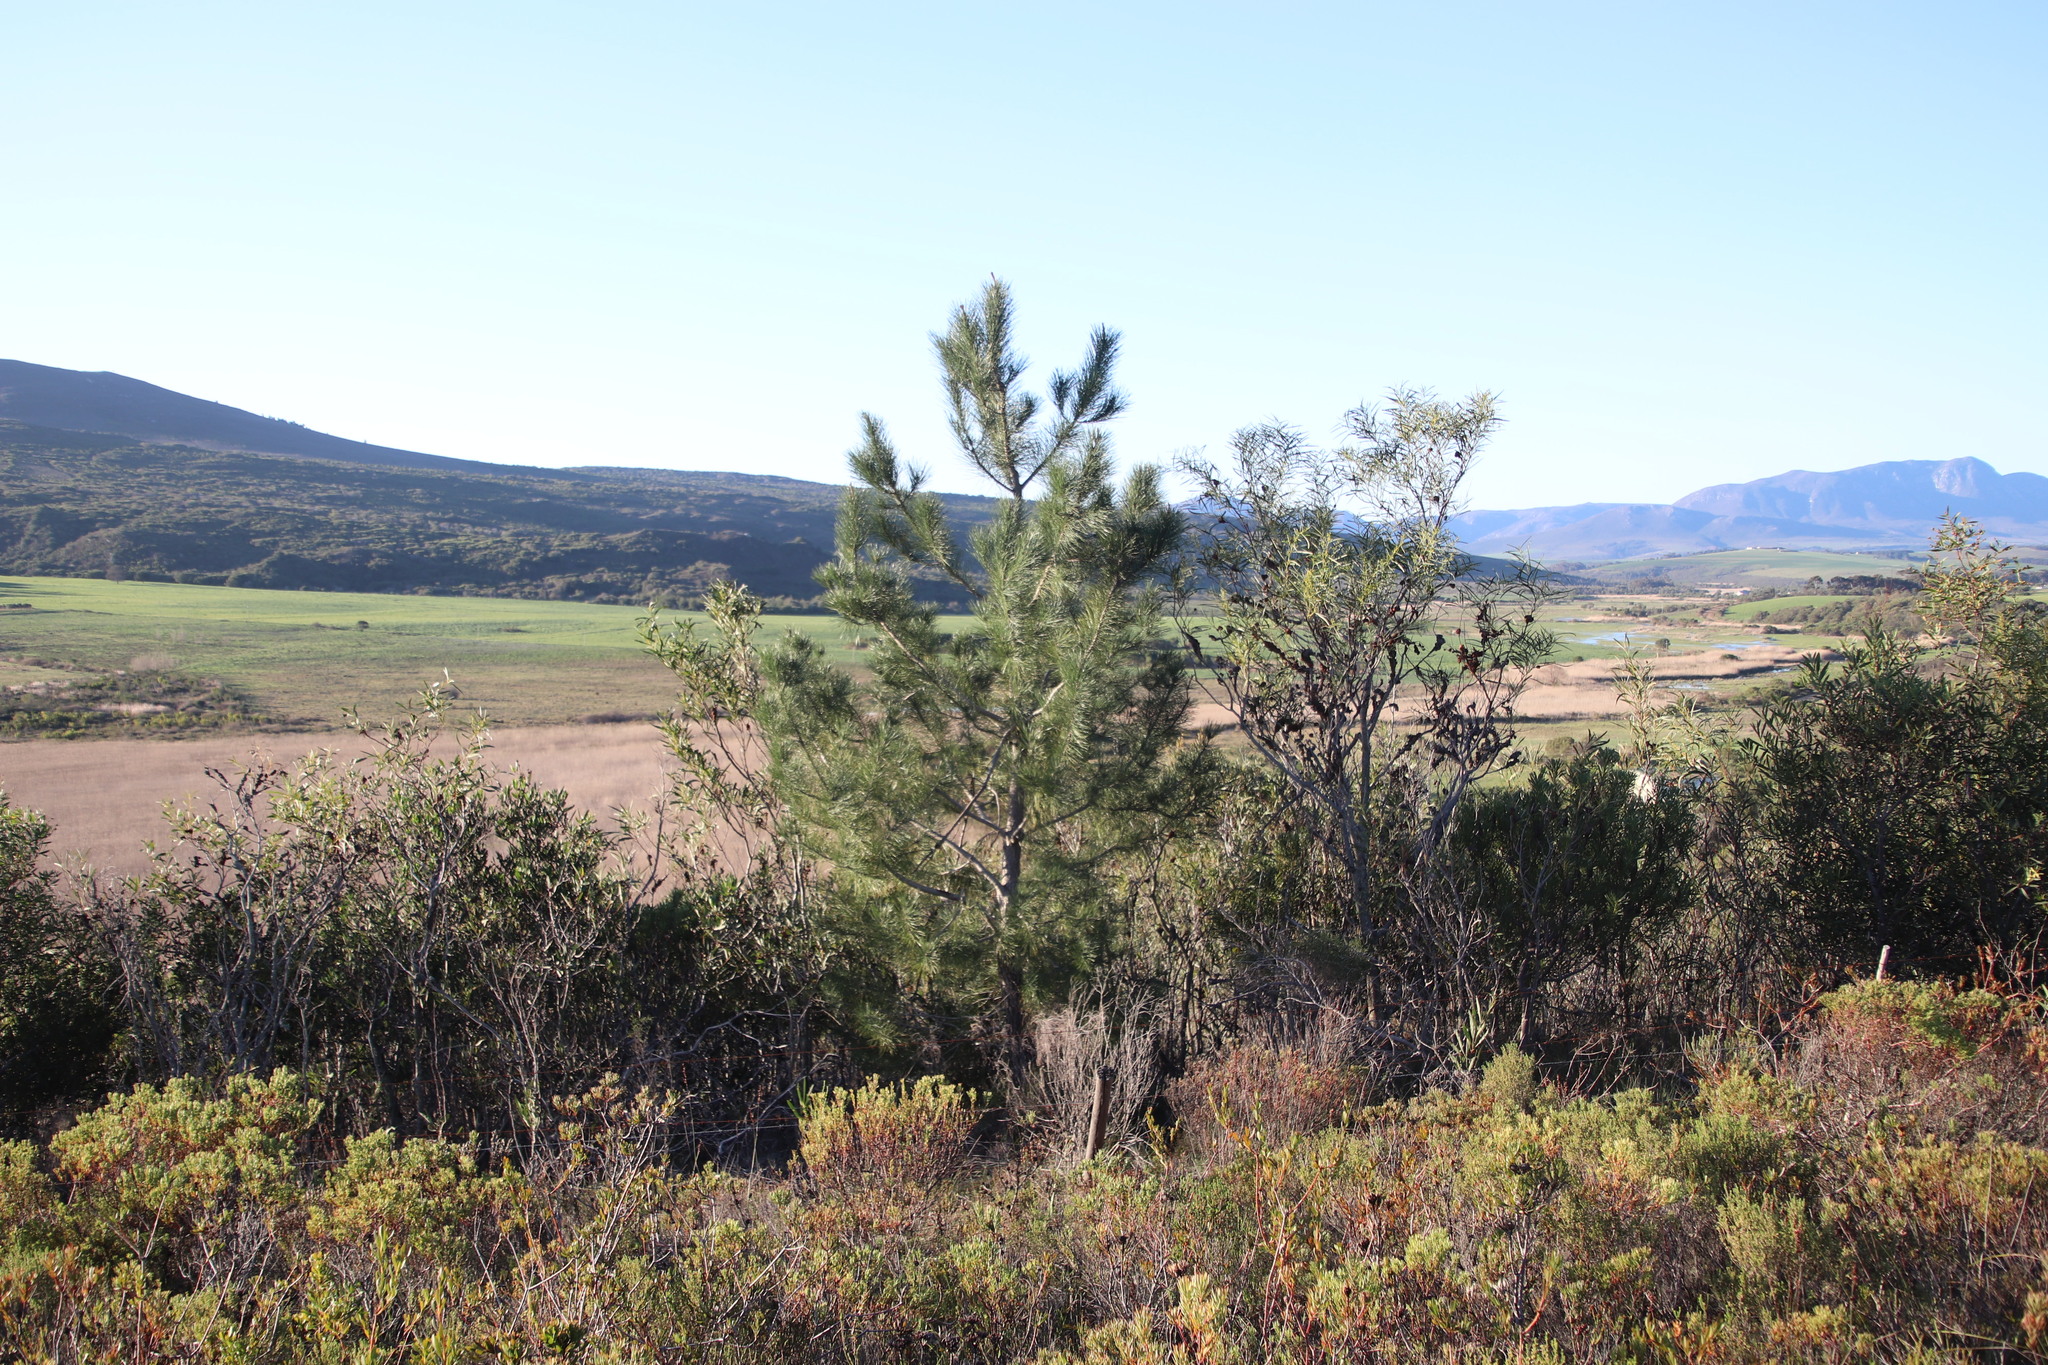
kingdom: Plantae
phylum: Tracheophyta
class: Pinopsida
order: Pinales
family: Pinaceae
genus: Pinus
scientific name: Pinus pinaster
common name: Maritime pine
